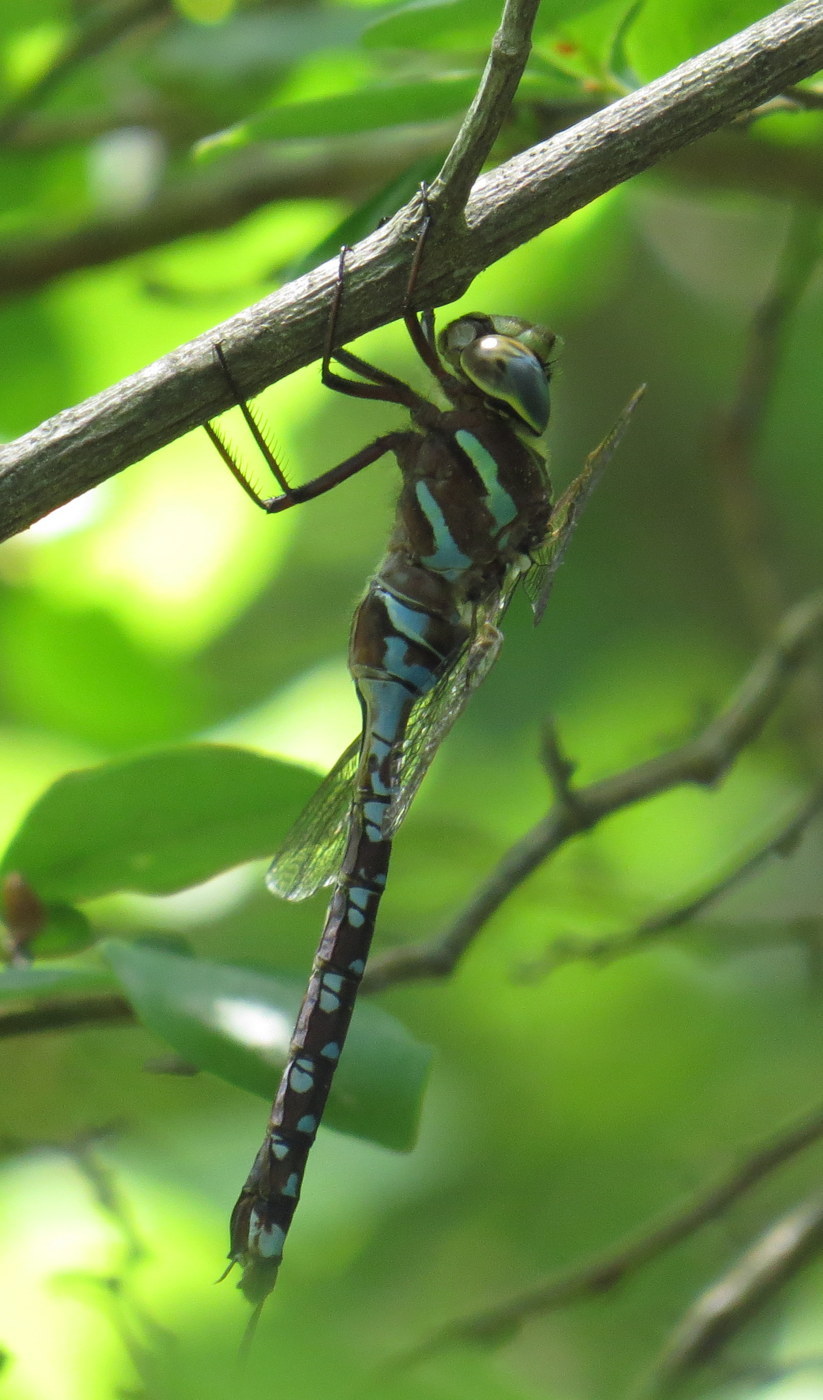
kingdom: Animalia
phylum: Arthropoda
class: Insecta
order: Odonata
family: Aeshnidae
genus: Aeshna
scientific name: Aeshna constricta
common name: Lance-tipped darner
